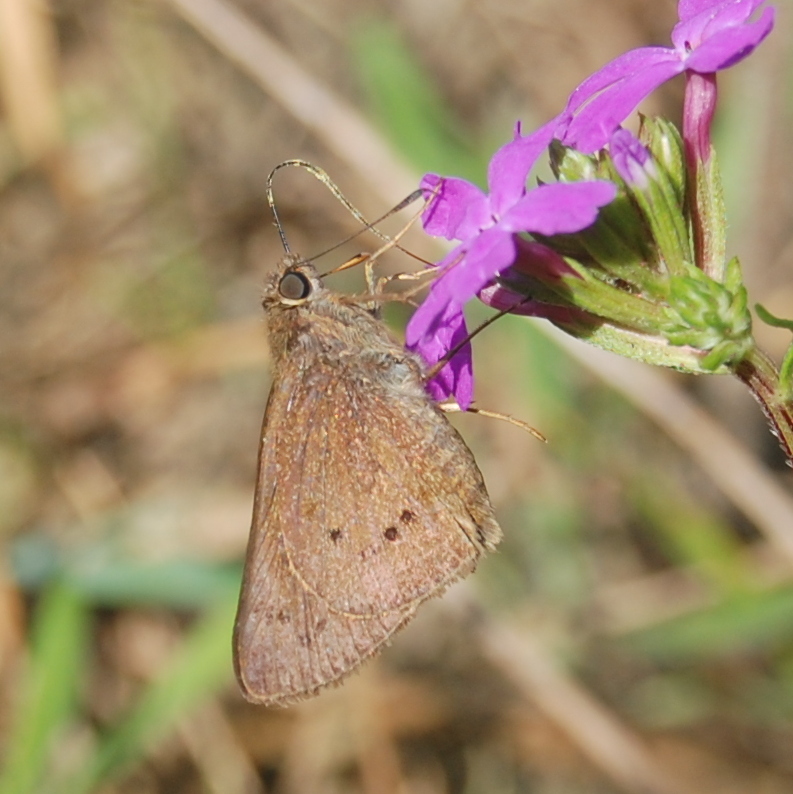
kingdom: Animalia
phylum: Arthropoda
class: Insecta
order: Lepidoptera
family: Hesperiidae
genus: Mucia
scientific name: Mucia zygia
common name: Black-dotted skipper
